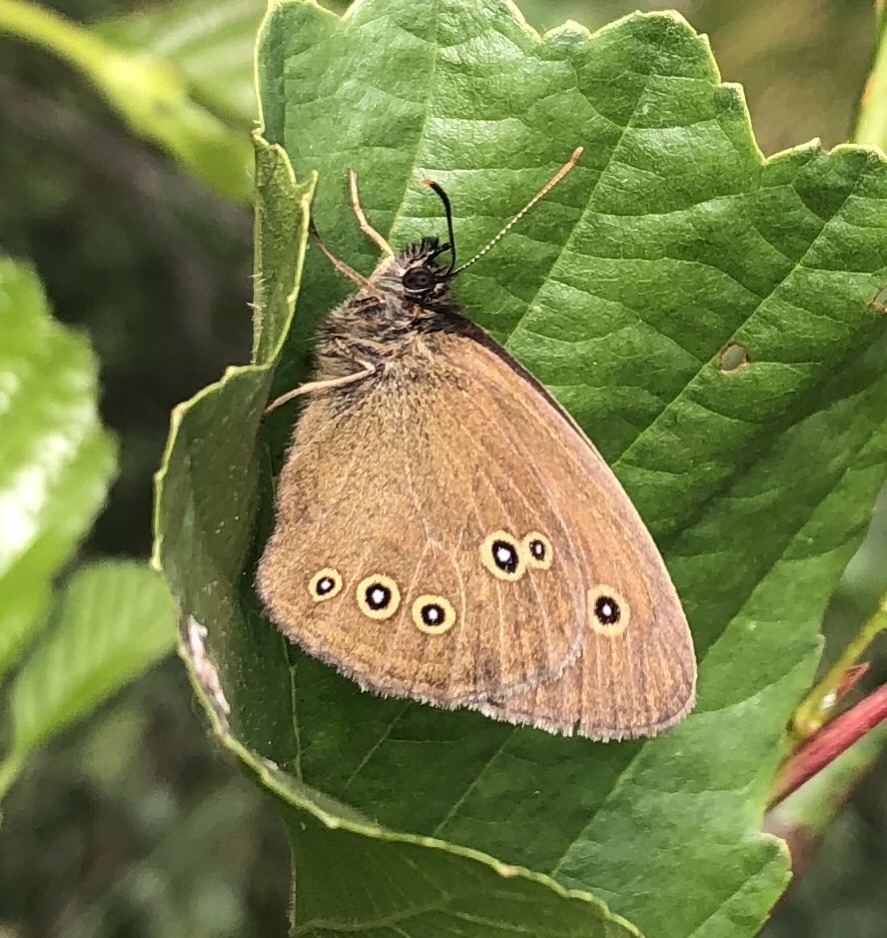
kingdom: Animalia
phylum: Arthropoda
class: Insecta
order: Lepidoptera
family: Nymphalidae
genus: Aphantopus
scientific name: Aphantopus hyperantus
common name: Ringlet
